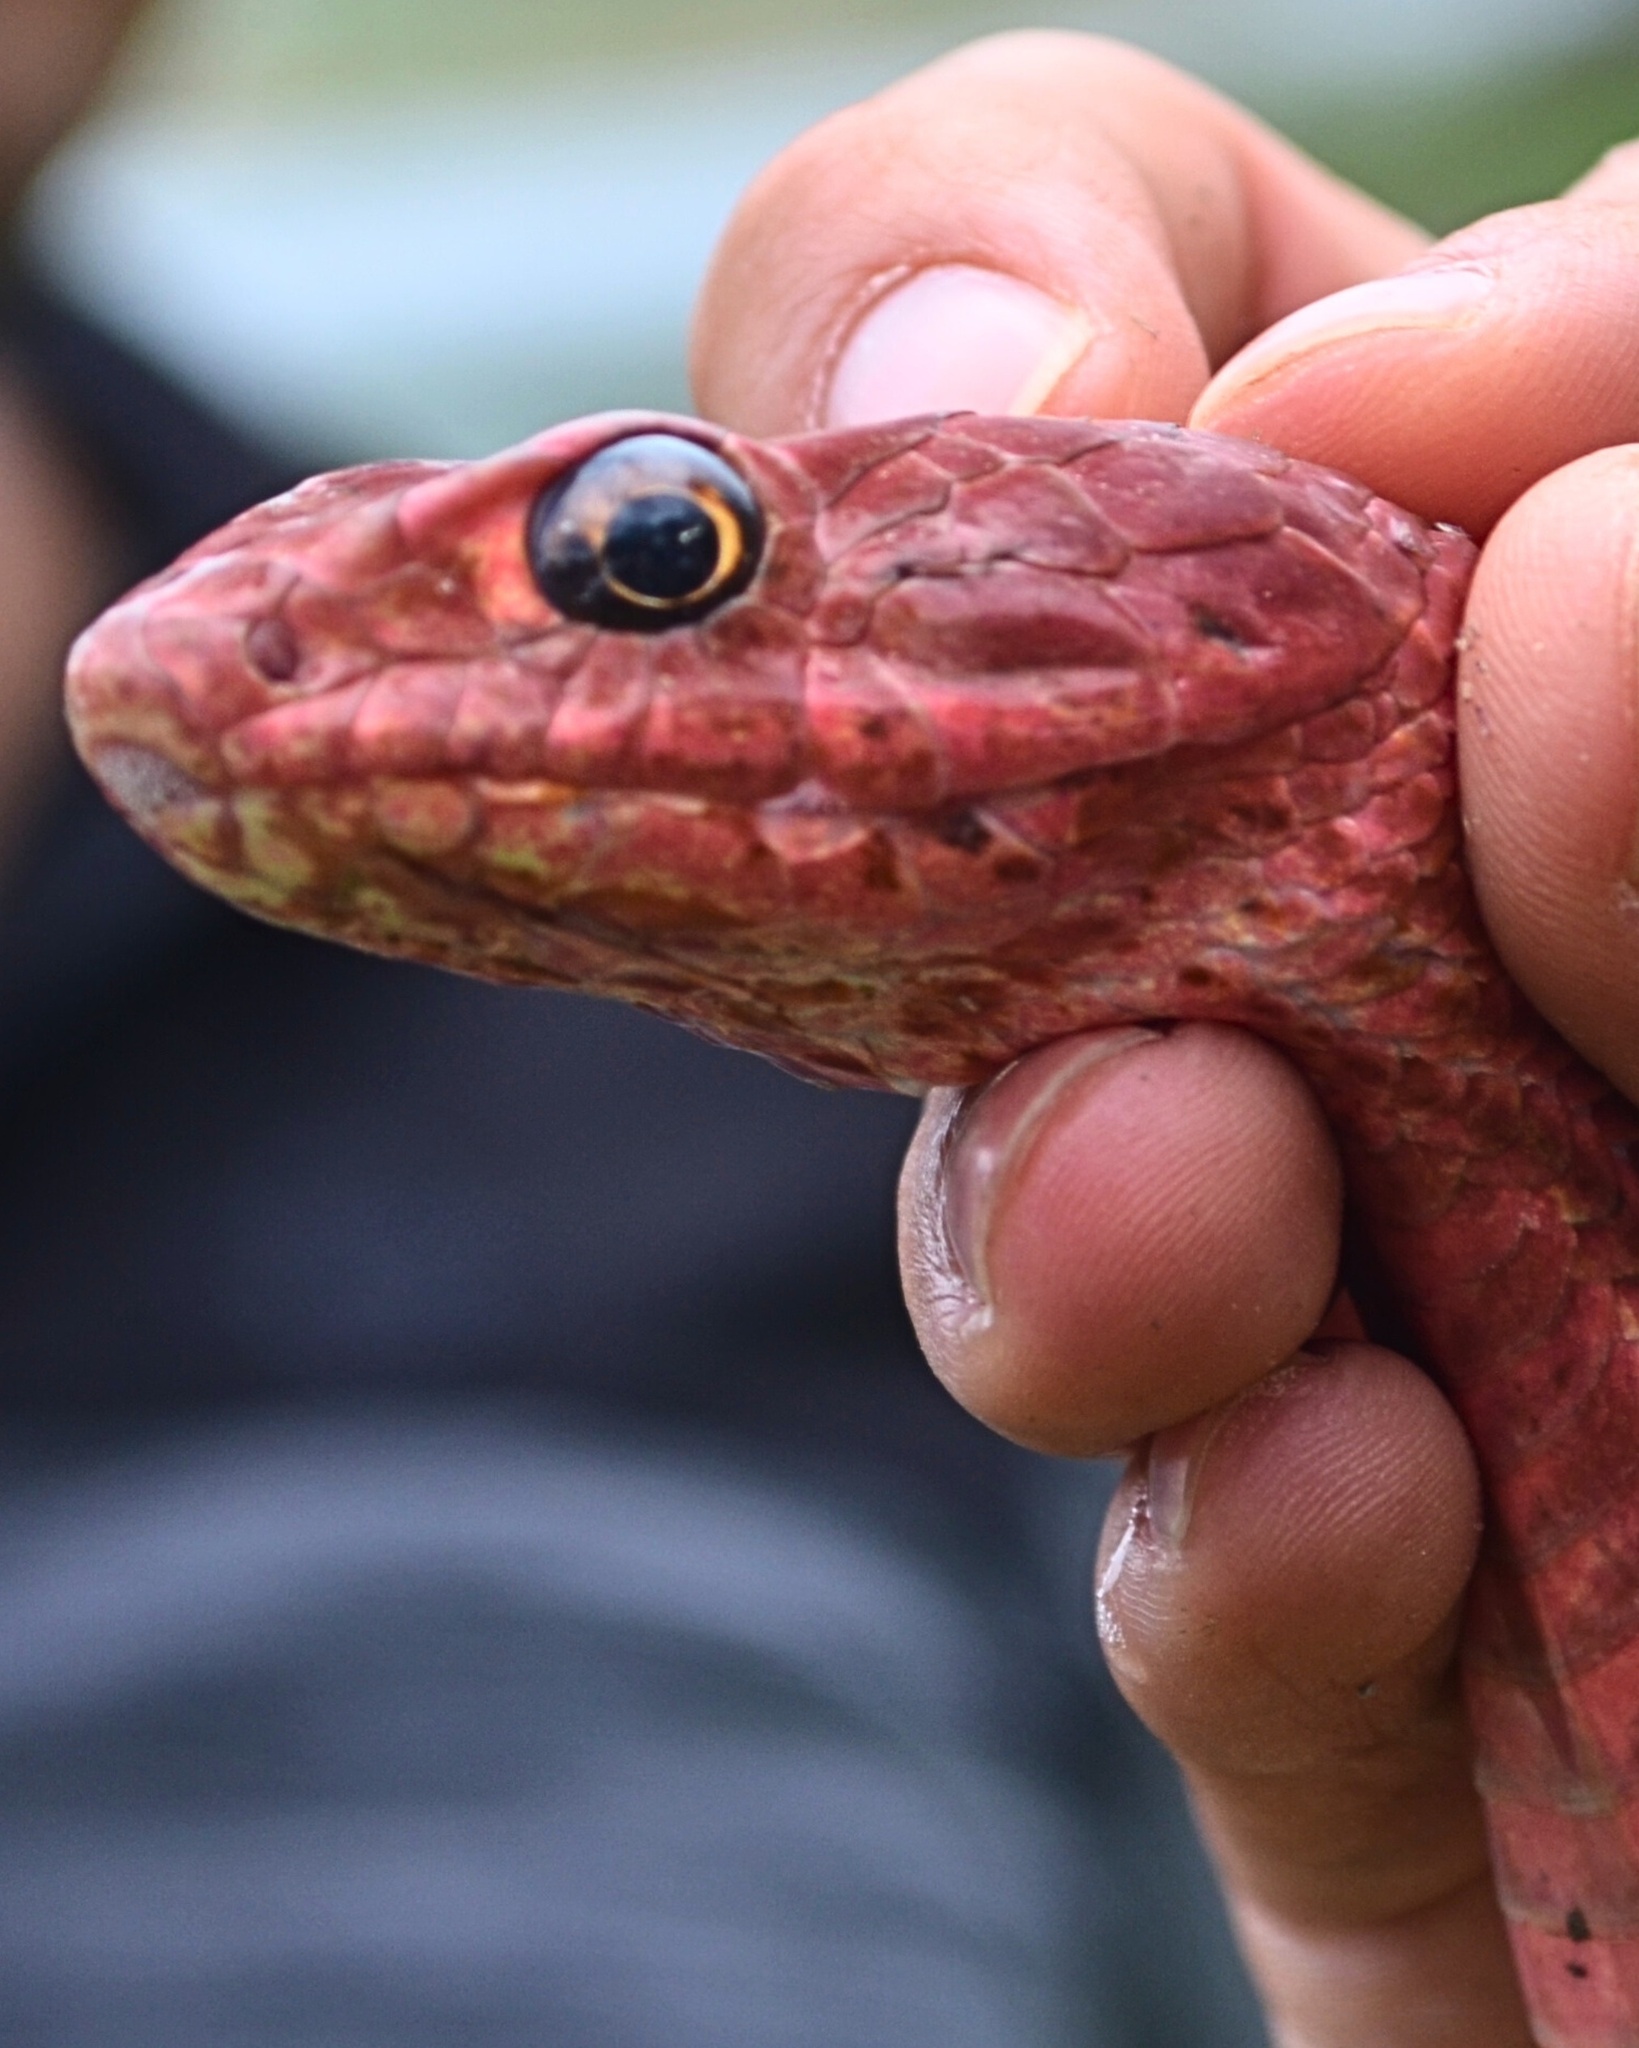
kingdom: Animalia
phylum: Chordata
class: Squamata
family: Colubridae
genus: Masticophis
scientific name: Masticophis flagellum
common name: Coachwhip
